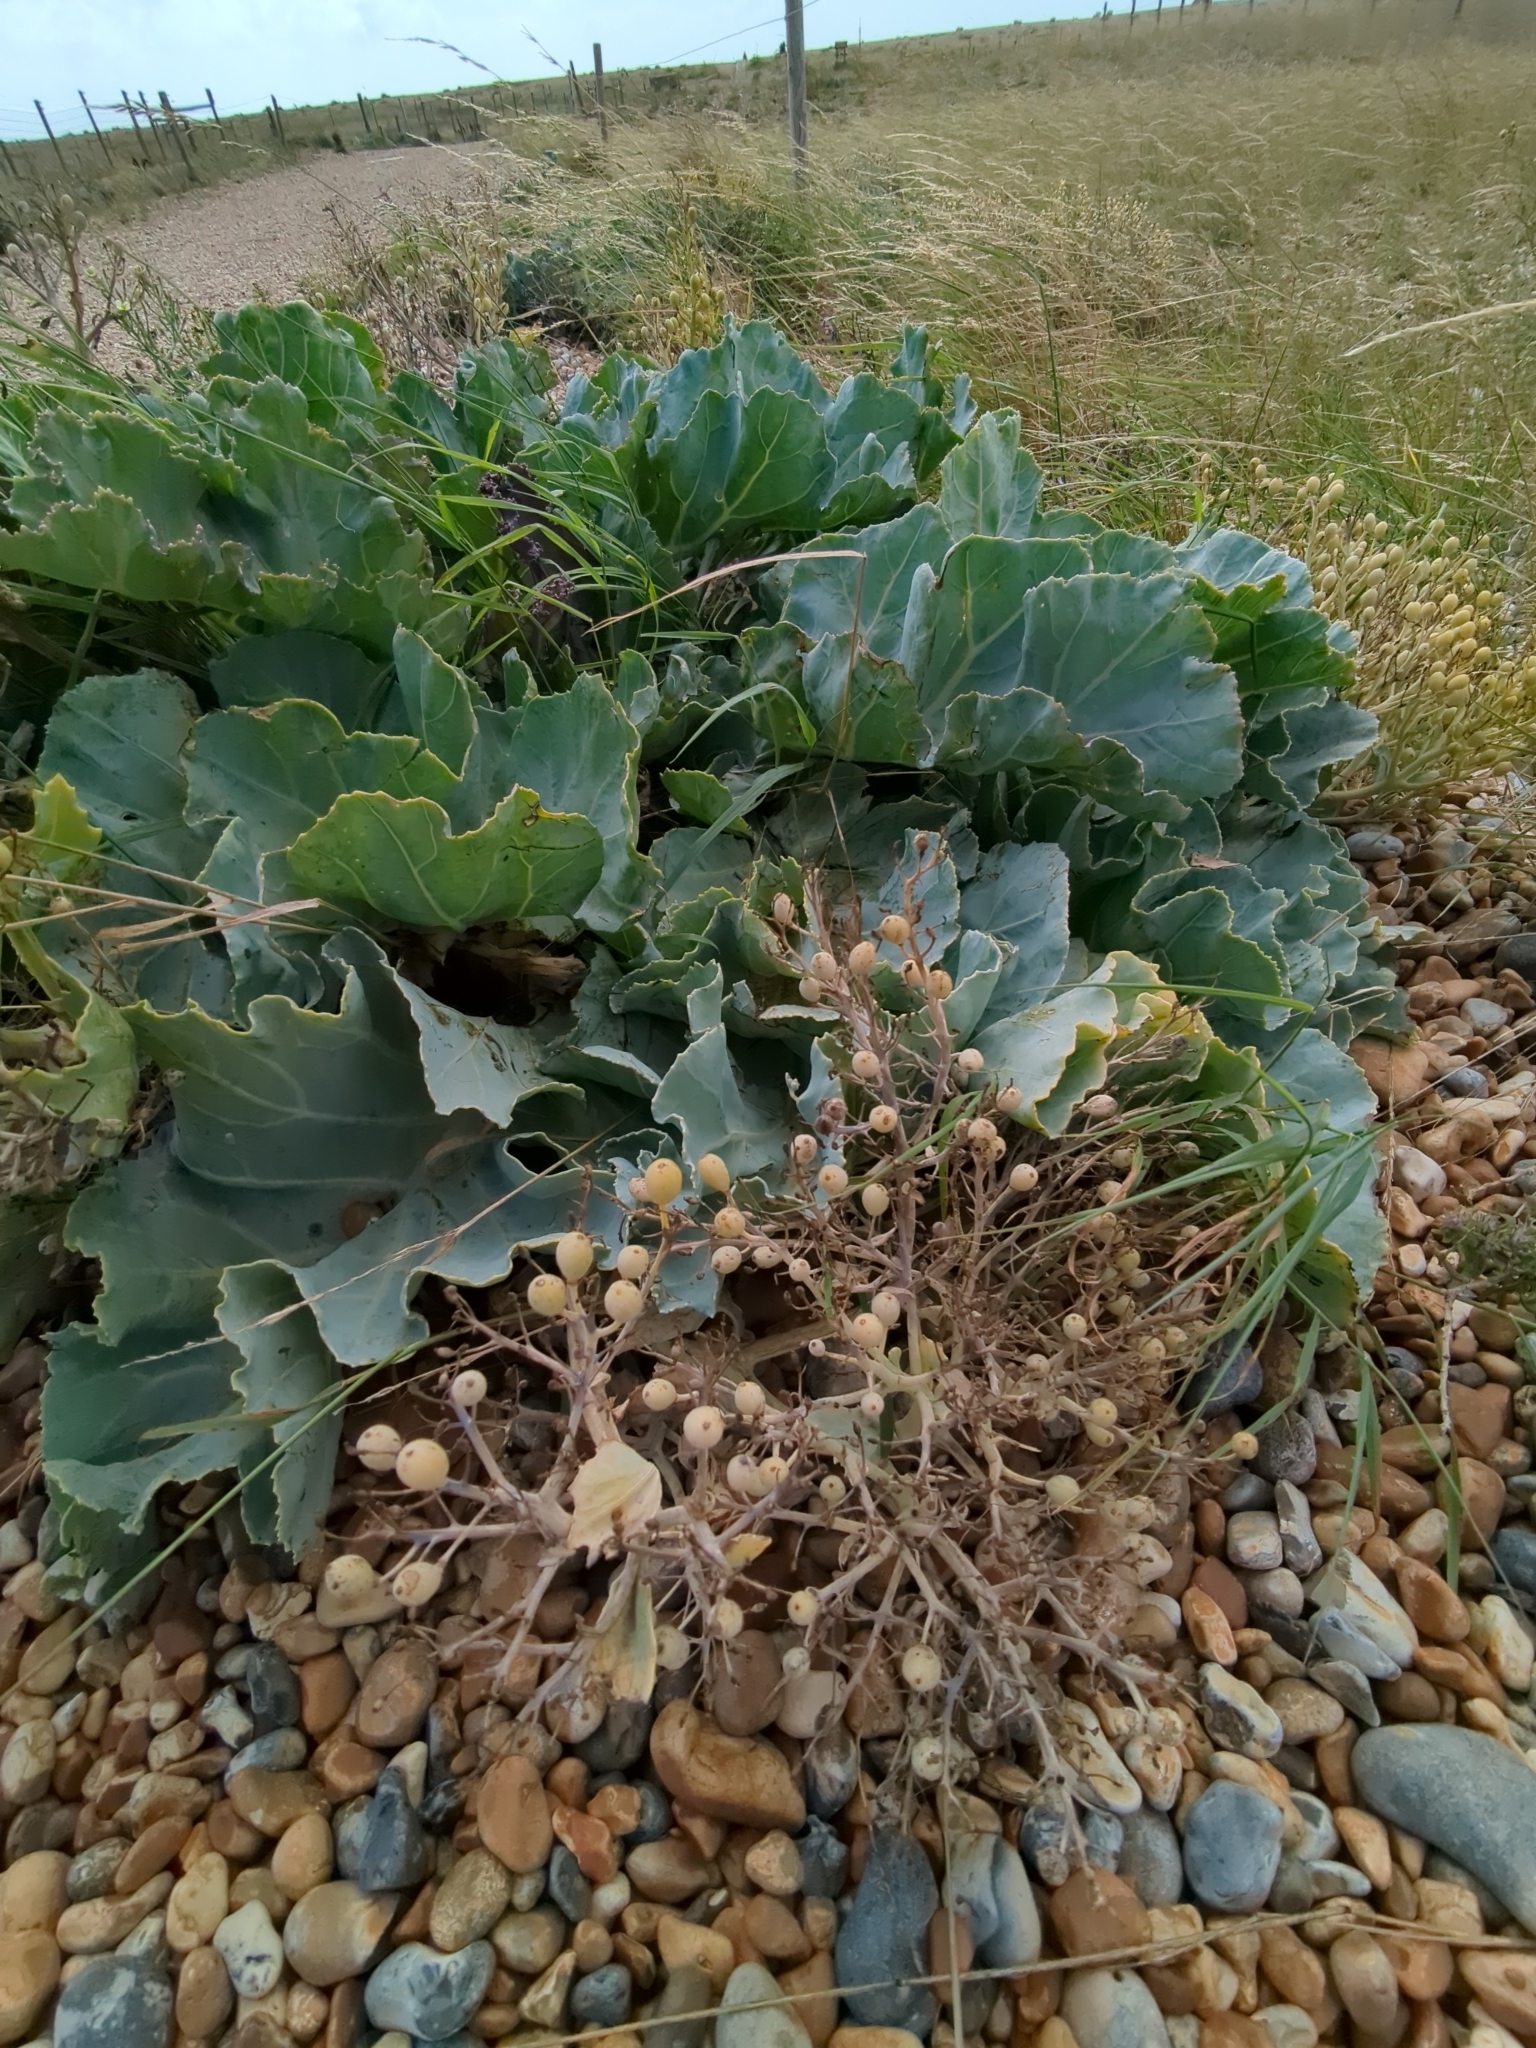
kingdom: Plantae
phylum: Tracheophyta
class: Magnoliopsida
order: Brassicales
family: Brassicaceae
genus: Crambe
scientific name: Crambe maritima
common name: Sea-kale
